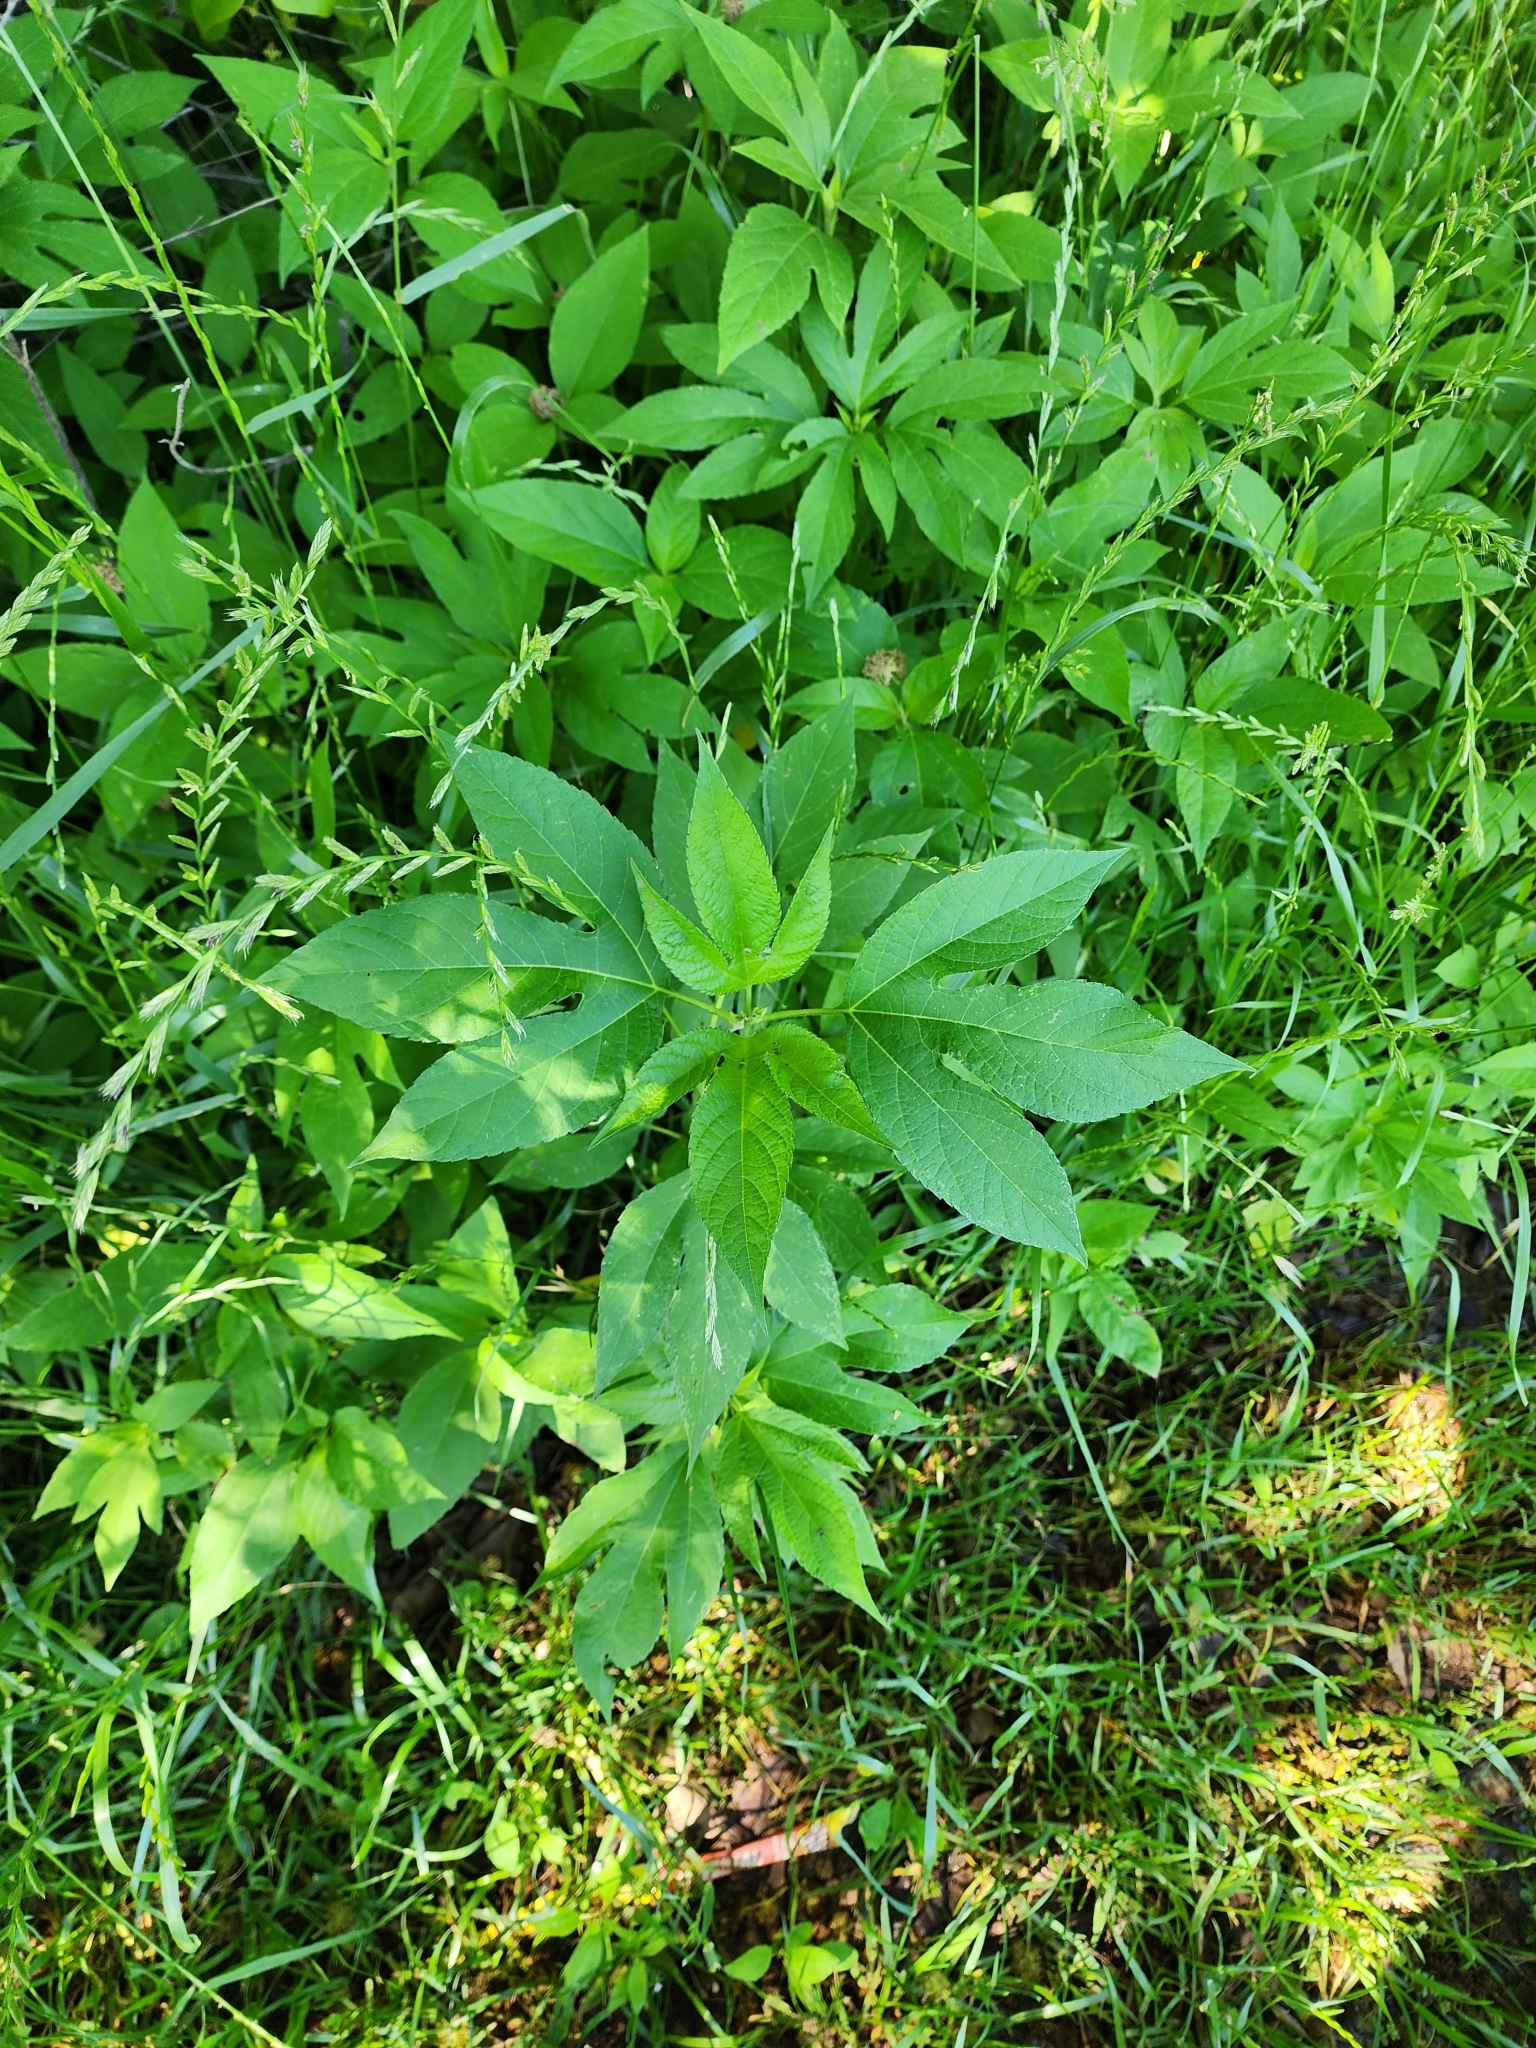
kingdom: Plantae
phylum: Tracheophyta
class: Magnoliopsida
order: Asterales
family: Asteraceae
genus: Ambrosia
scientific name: Ambrosia trifida
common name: Giant ragweed
